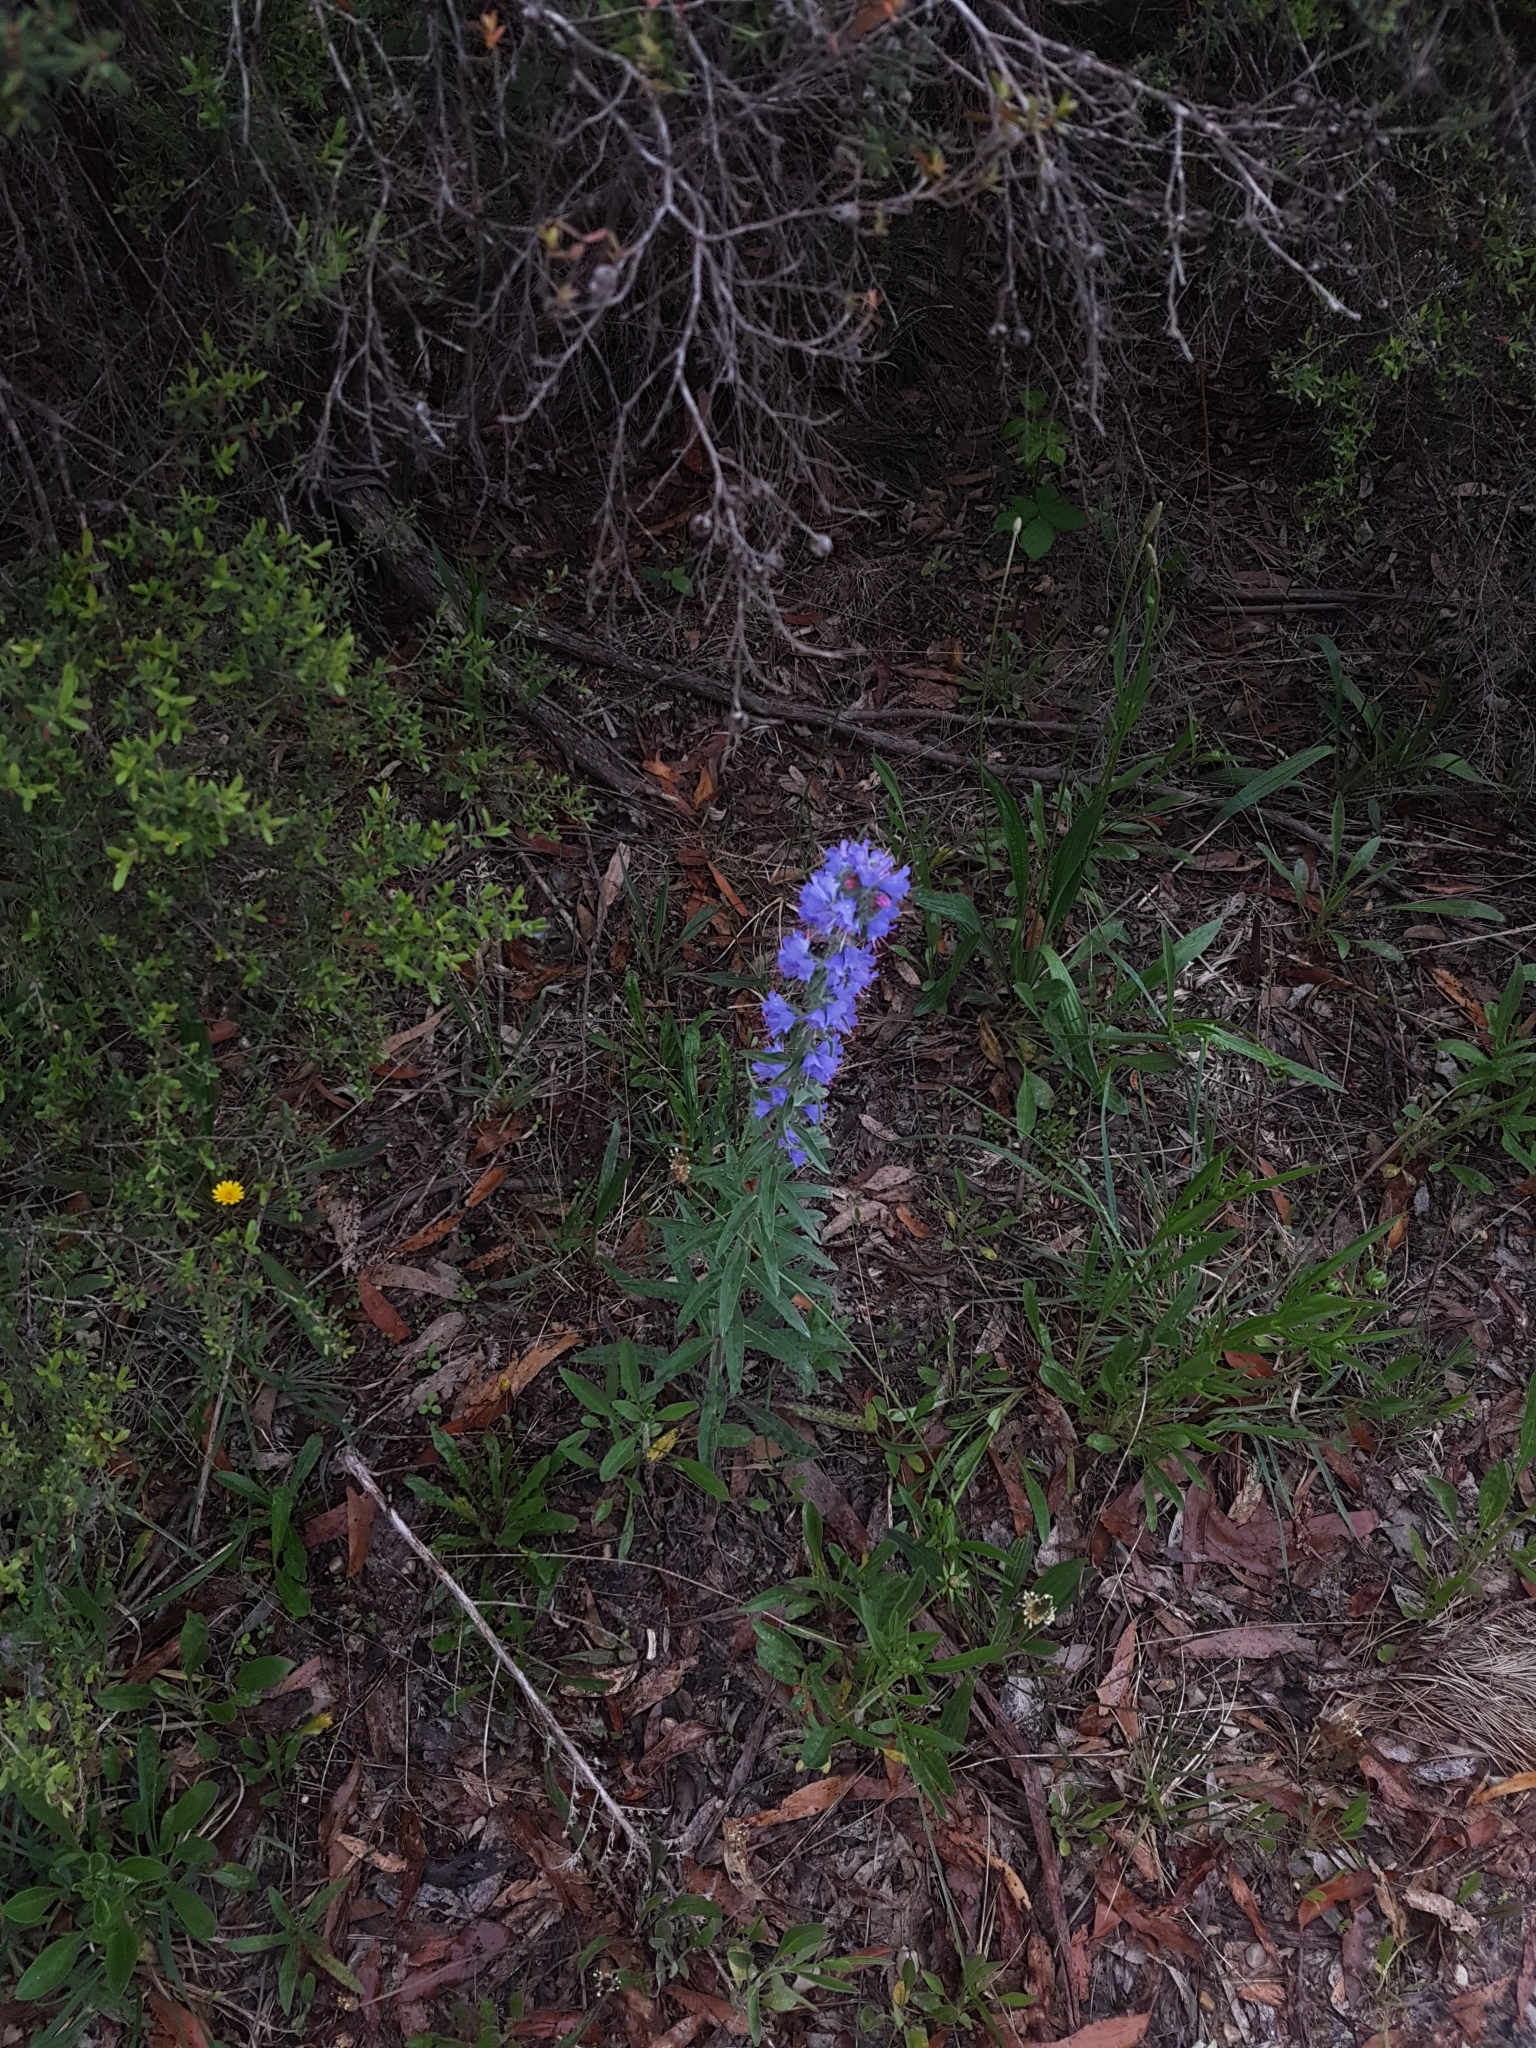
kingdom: Plantae
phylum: Tracheophyta
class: Magnoliopsida
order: Boraginales
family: Boraginaceae
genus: Echium
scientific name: Echium vulgare
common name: Common viper's bugloss
